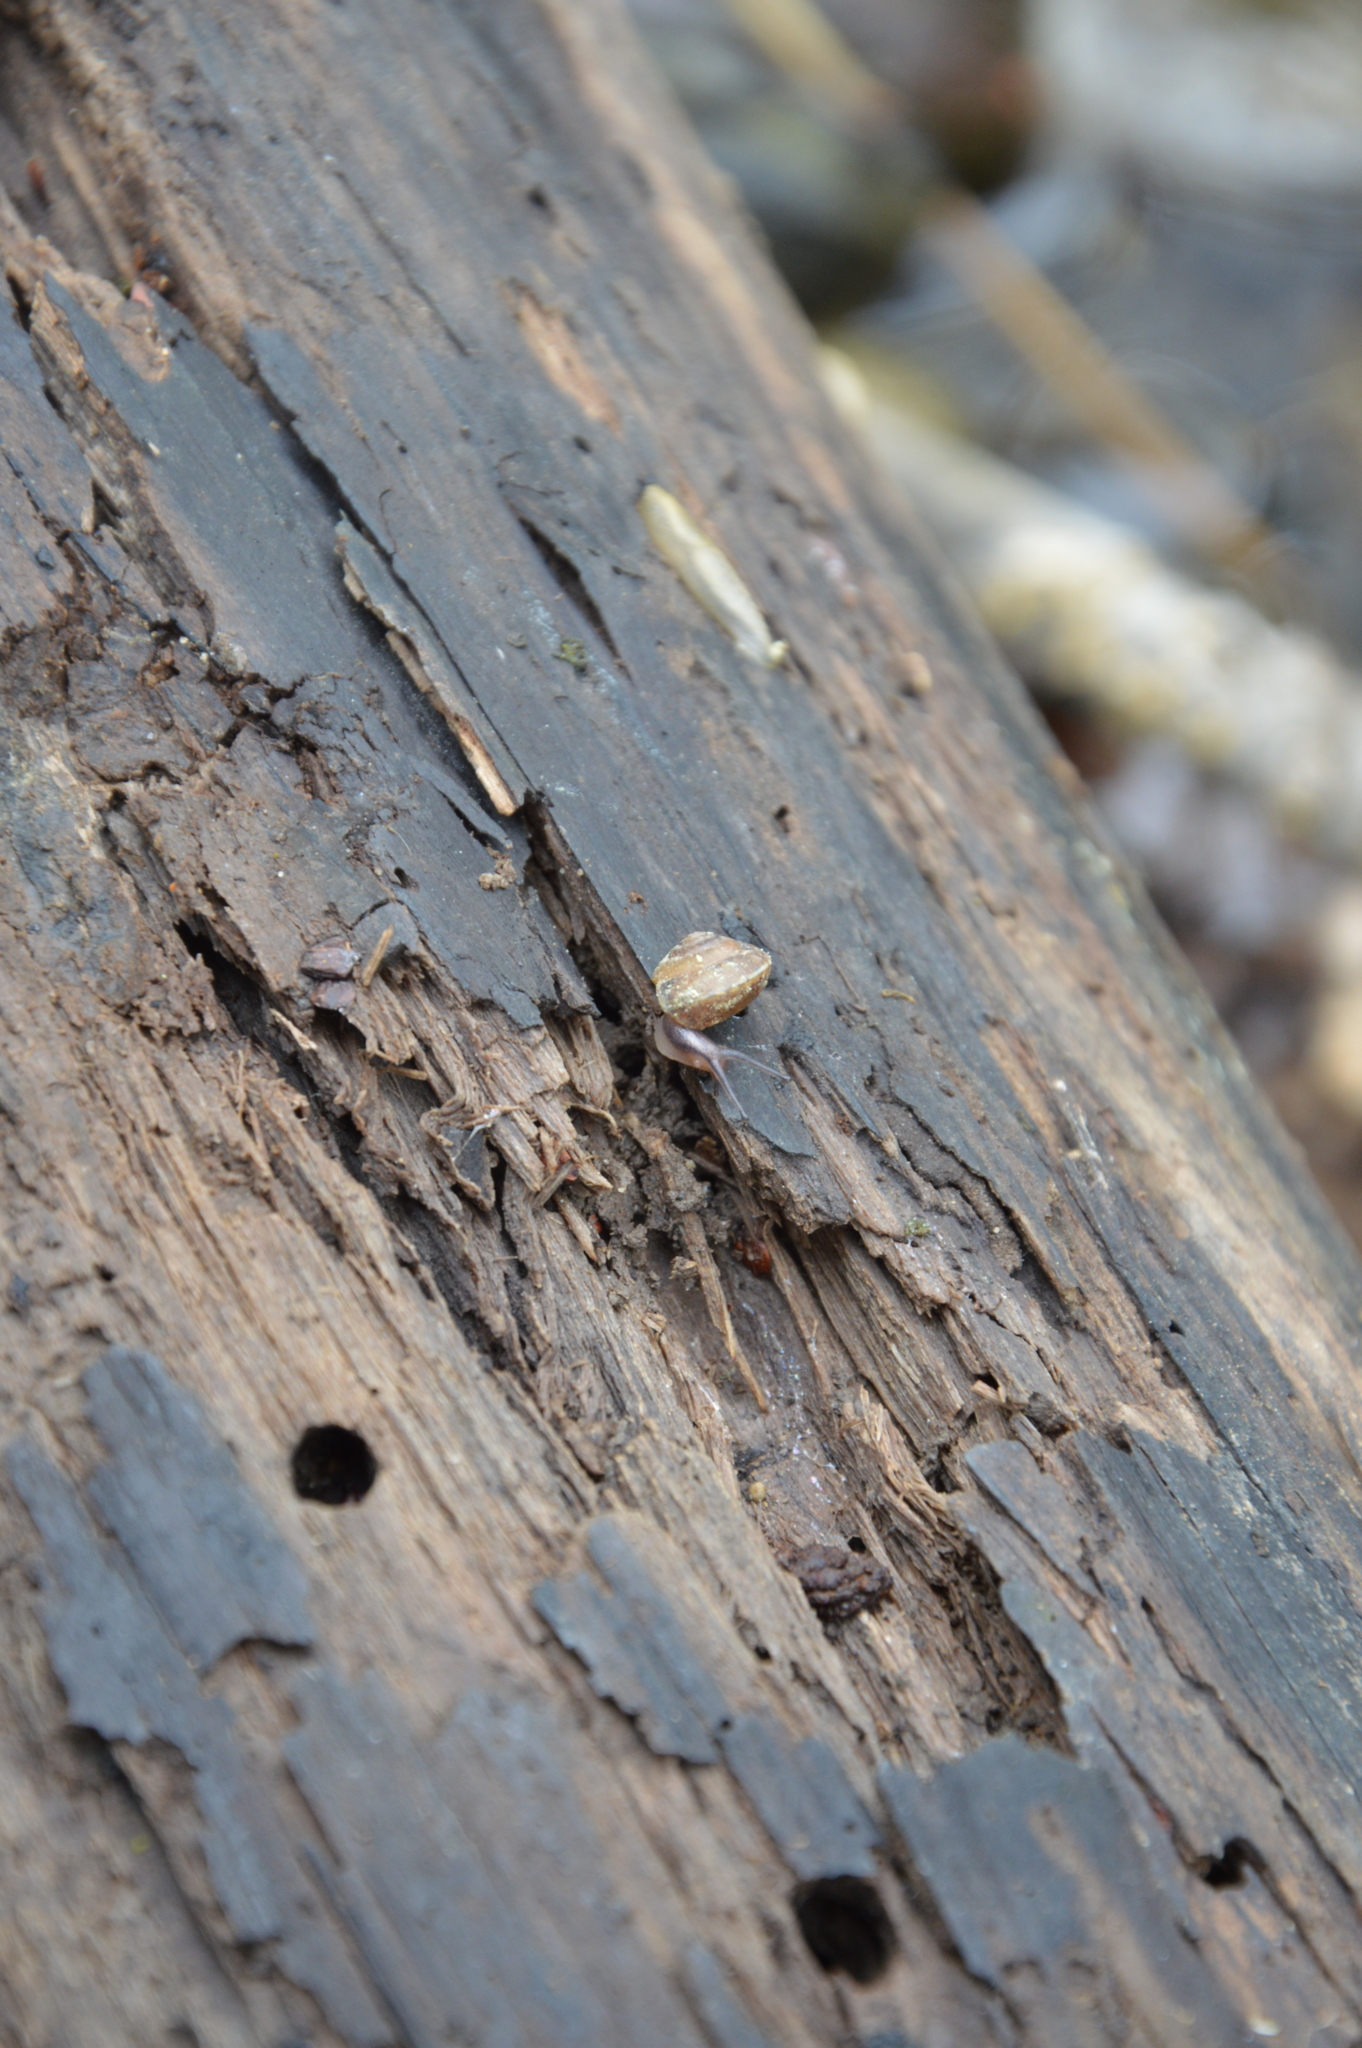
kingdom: Animalia
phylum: Mollusca
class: Gastropoda
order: Stylommatophora
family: Hygromiidae
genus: Hygromia
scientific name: Hygromia cinctella
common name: Girdled snail
